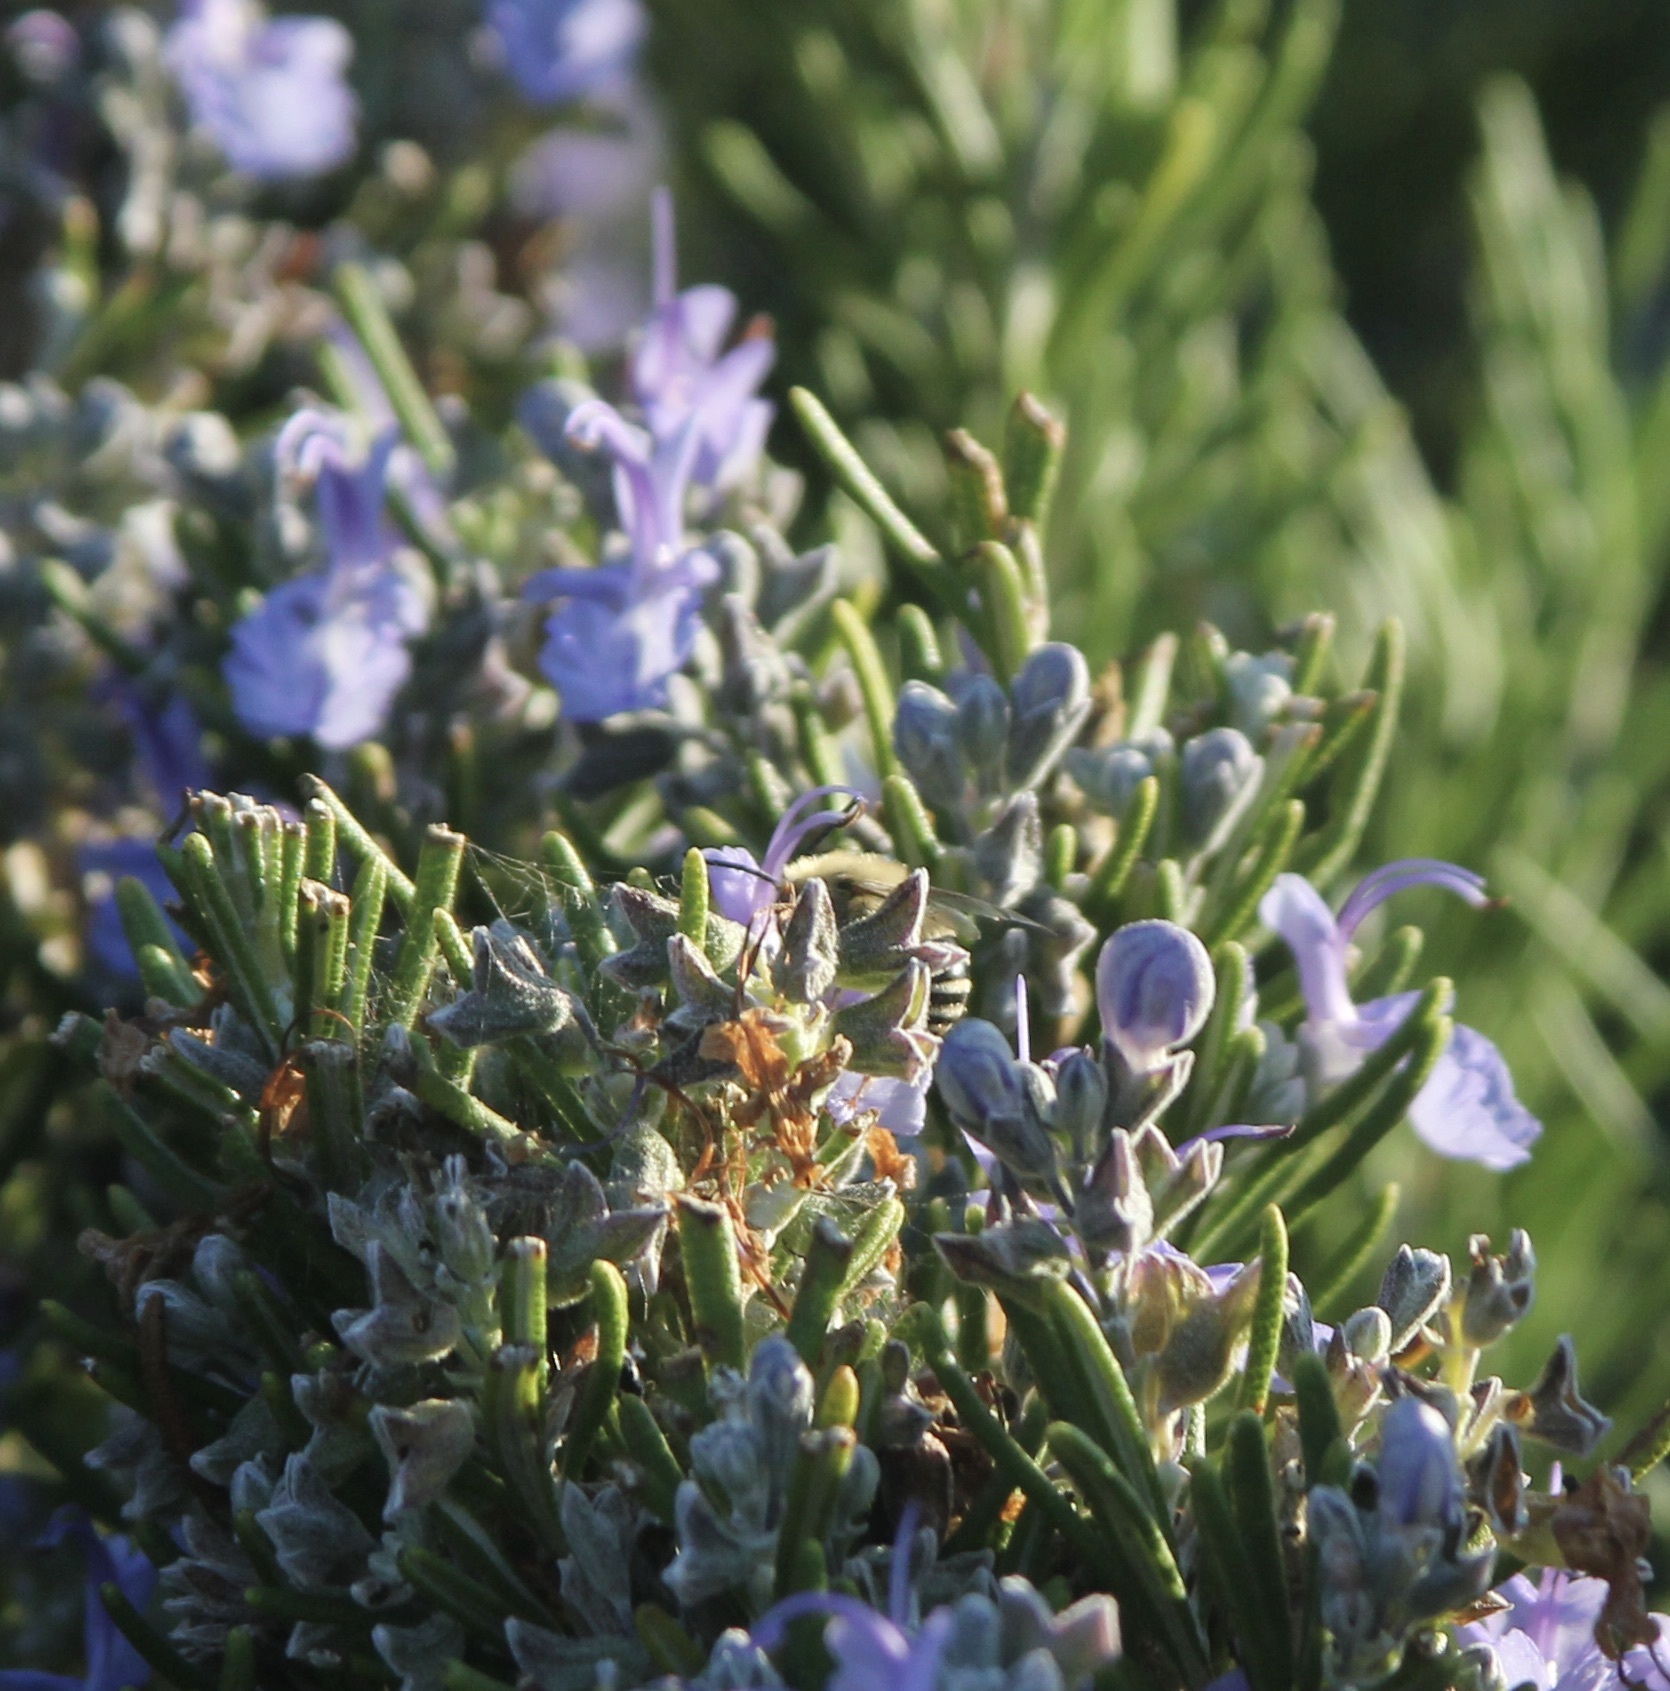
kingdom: Animalia
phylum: Arthropoda
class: Insecta
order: Hymenoptera
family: Apidae
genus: Anthophora
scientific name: Anthophora urbana
